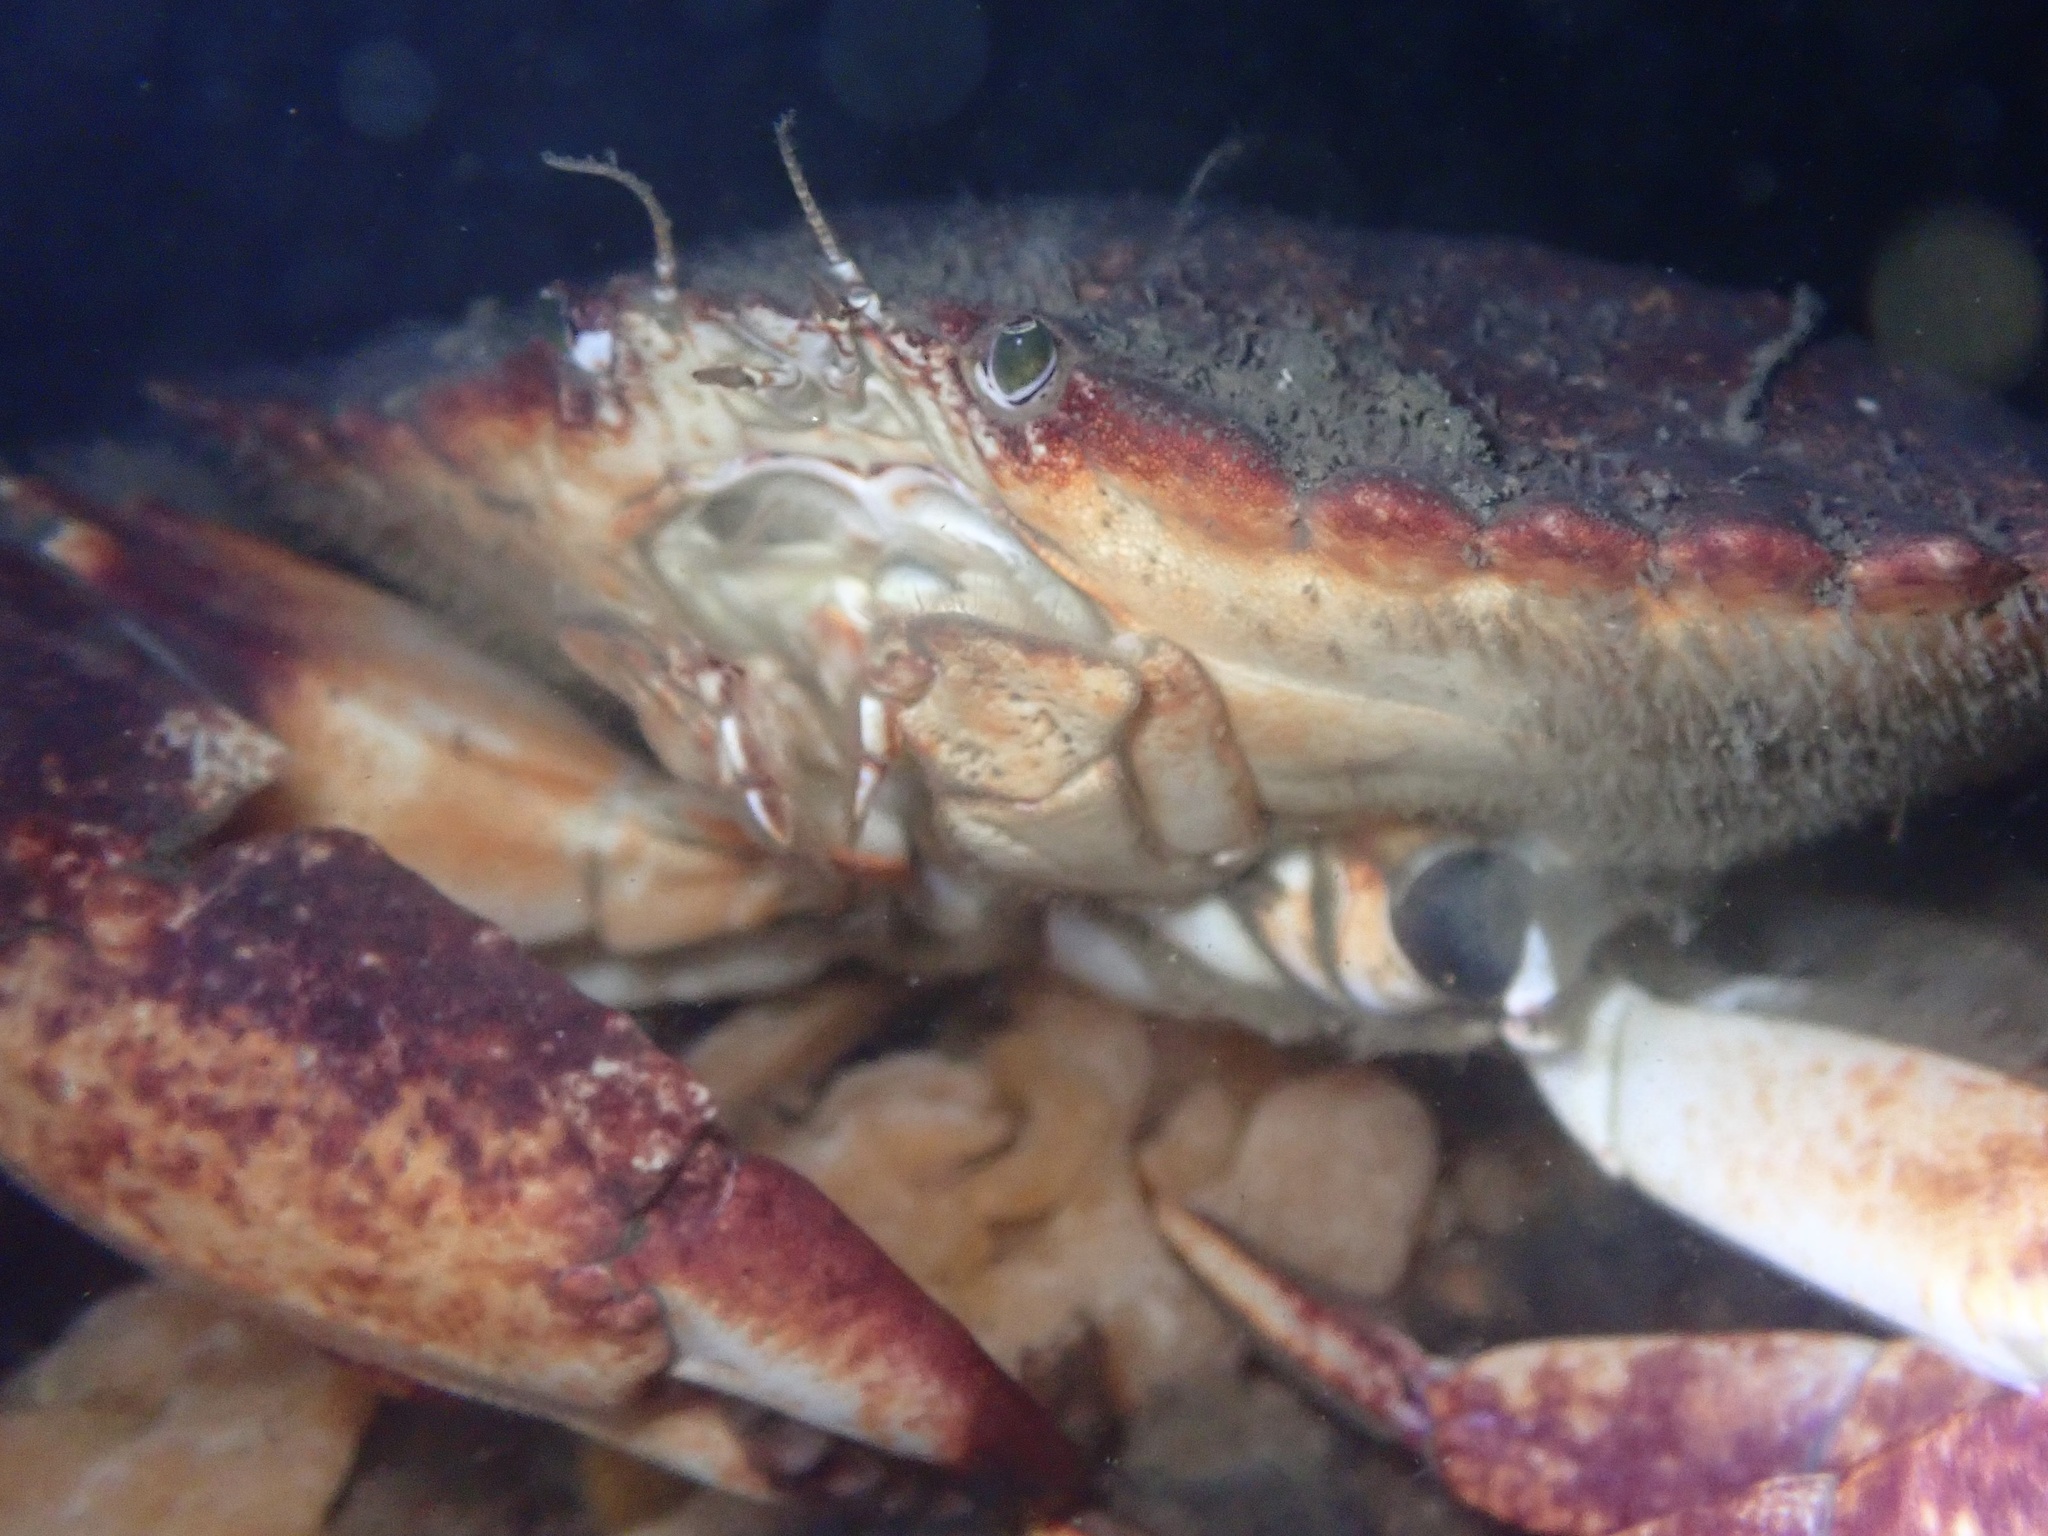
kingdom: Animalia
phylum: Arthropoda
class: Malacostraca
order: Decapoda
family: Cancridae
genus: Cancer
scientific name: Cancer productus
